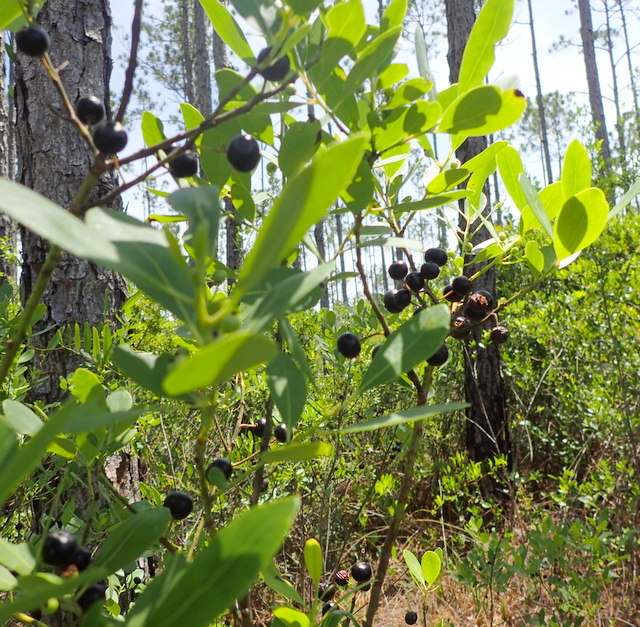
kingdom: Plantae
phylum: Tracheophyta
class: Magnoliopsida
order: Aquifoliales
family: Aquifoliaceae
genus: Ilex
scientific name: Ilex glabra
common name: Bitter gallberry
